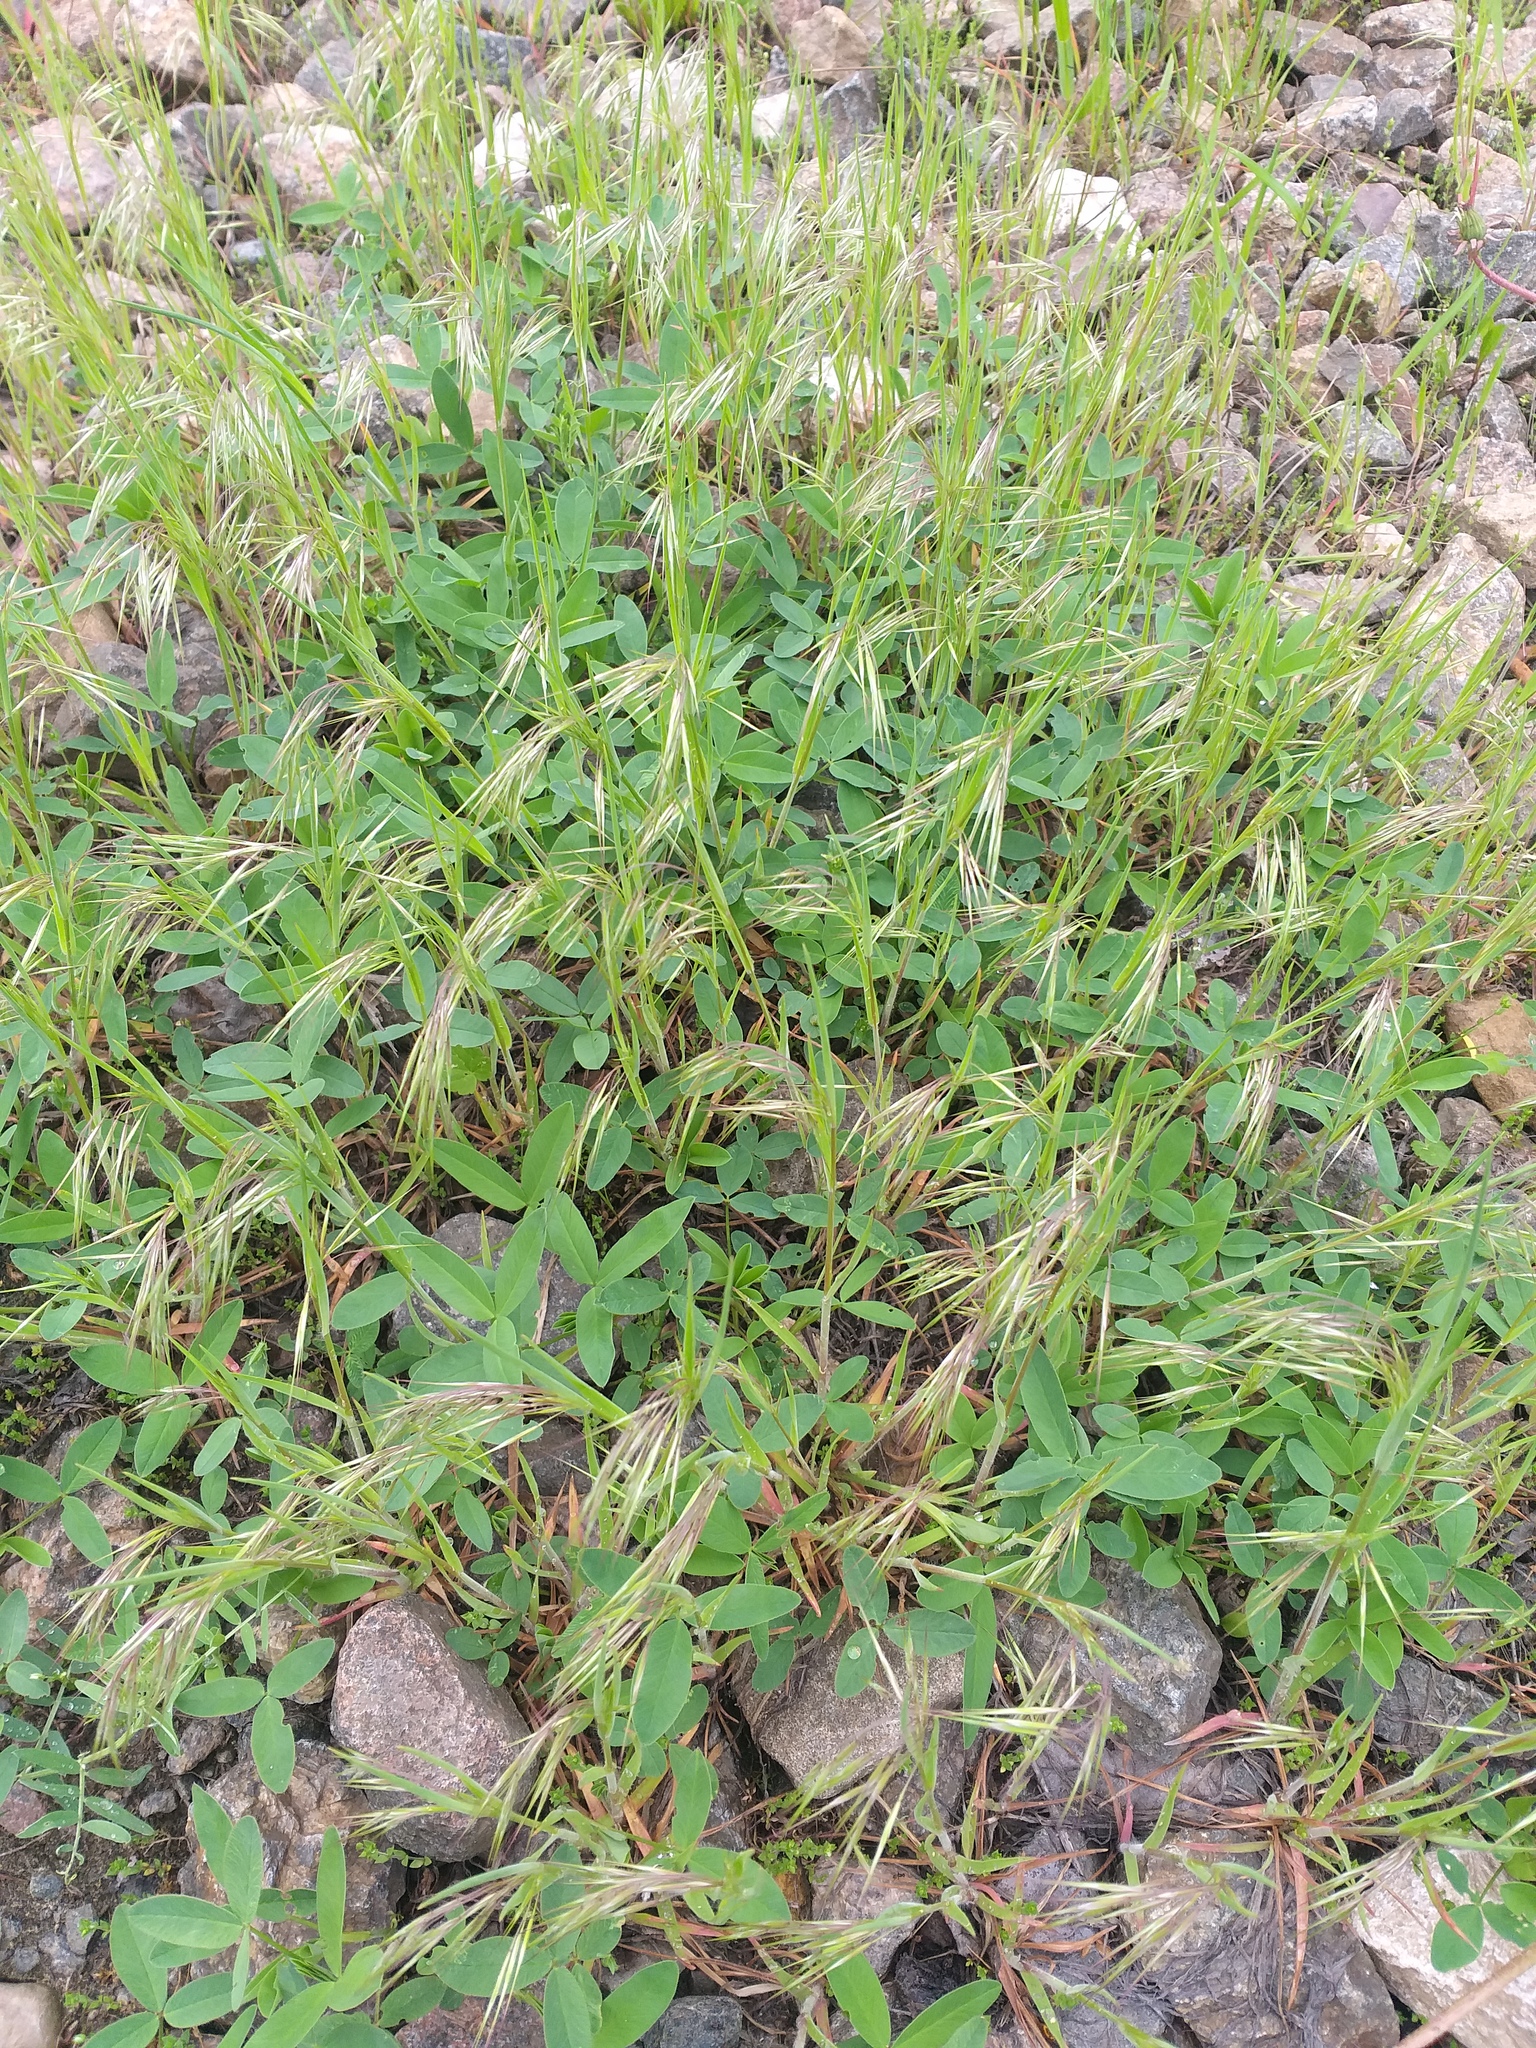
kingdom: Plantae
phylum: Tracheophyta
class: Liliopsida
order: Poales
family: Poaceae
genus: Bromus
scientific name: Bromus tectorum
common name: Cheatgrass
